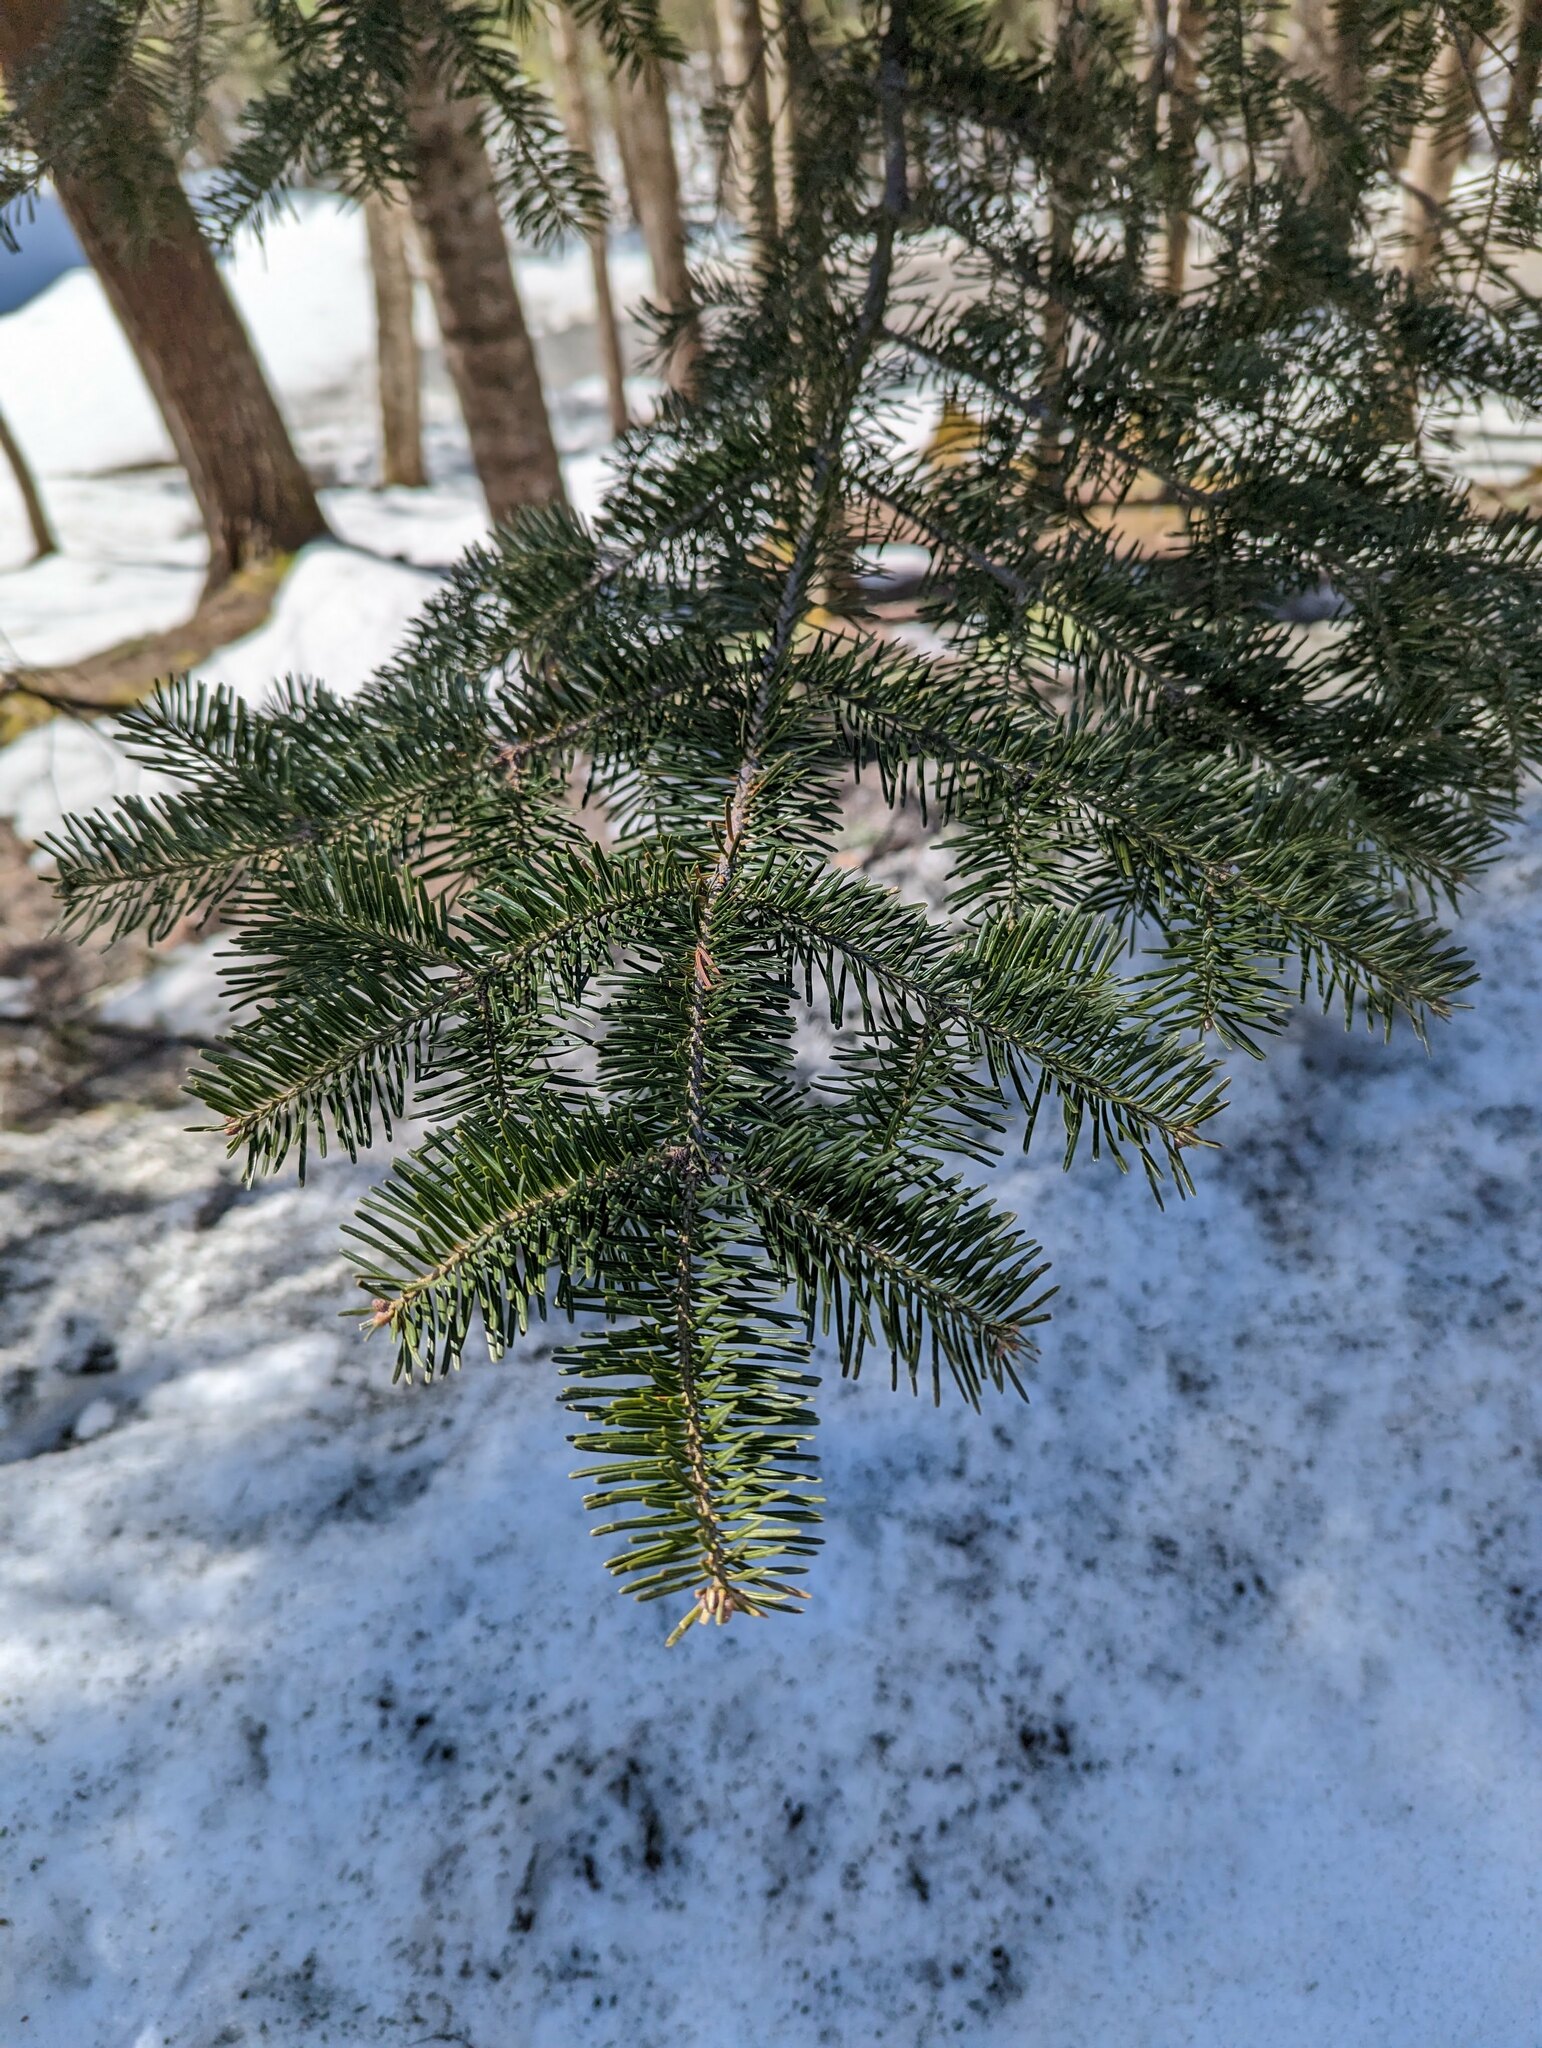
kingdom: Plantae
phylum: Tracheophyta
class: Pinopsida
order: Pinales
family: Pinaceae
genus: Abies
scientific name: Abies balsamea
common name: Balsam fir
